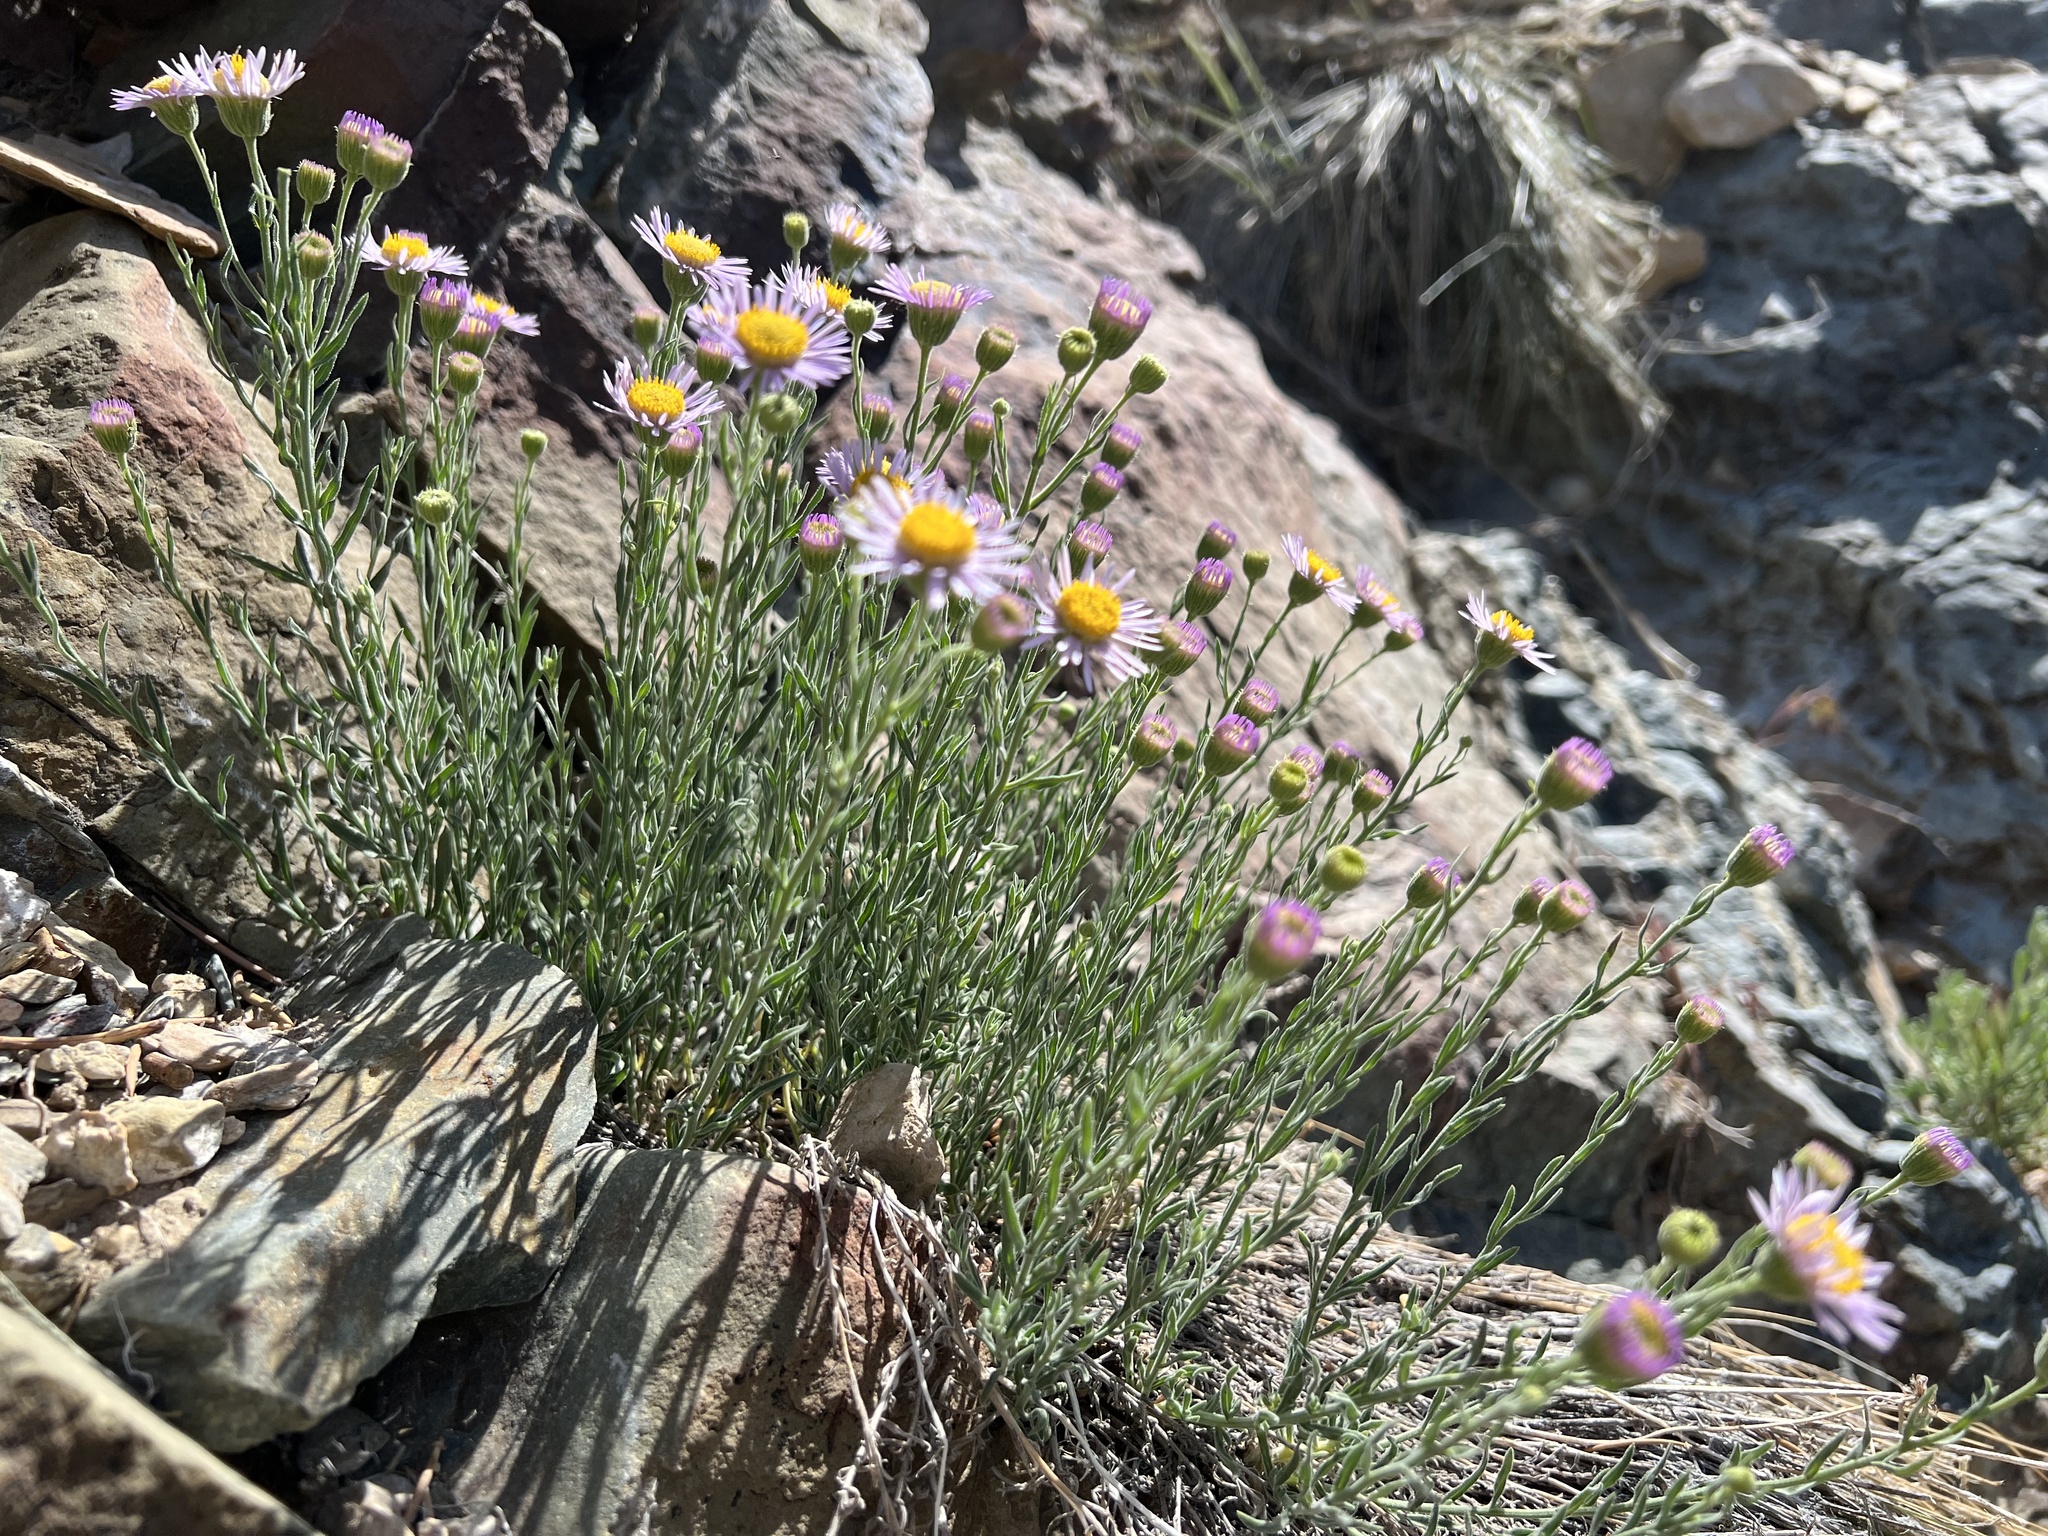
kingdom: Plantae
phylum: Tracheophyta
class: Magnoliopsida
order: Asterales
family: Asteraceae
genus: Erigeron
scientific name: Erigeron breweri
